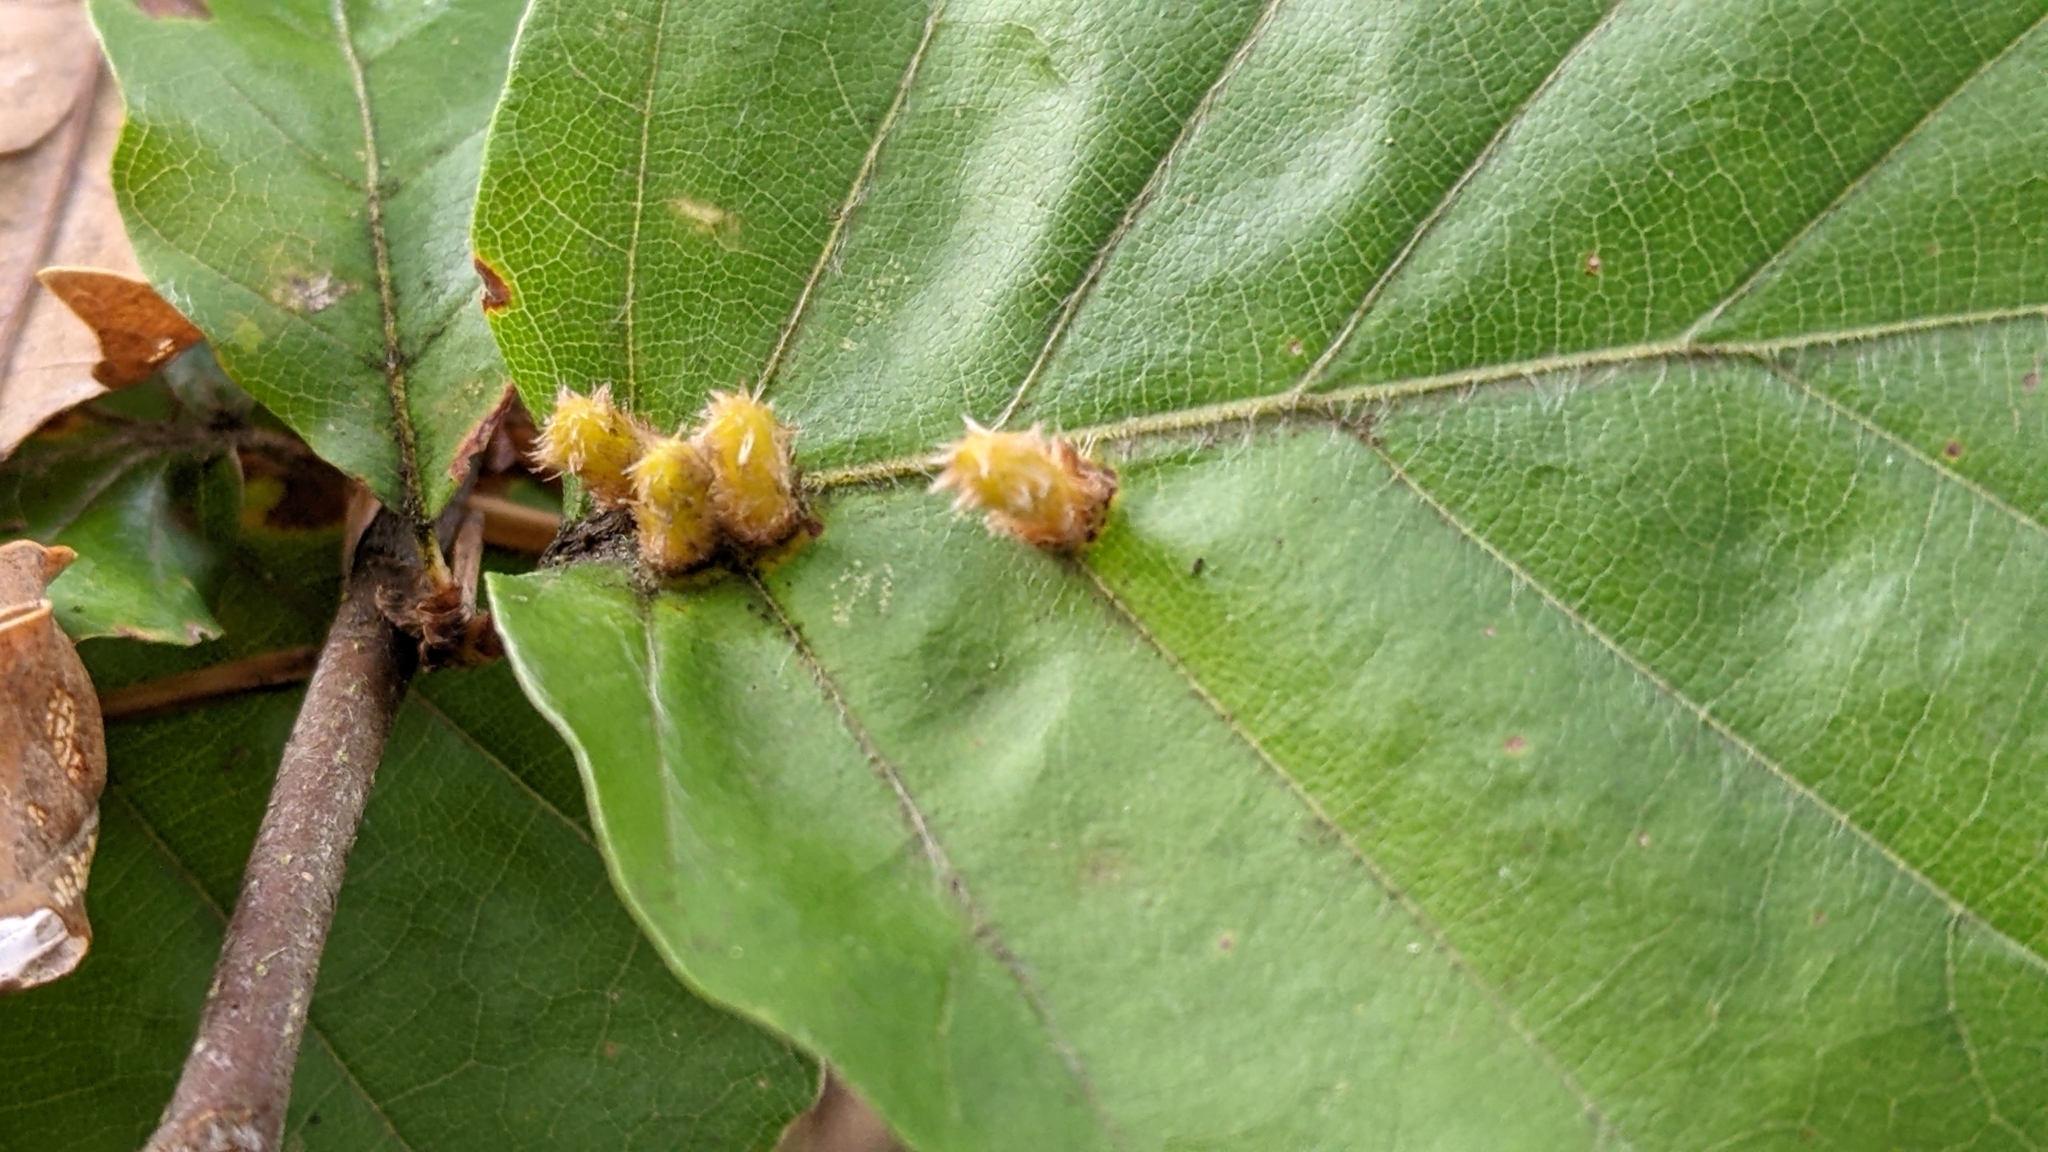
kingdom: Animalia
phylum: Arthropoda
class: Insecta
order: Diptera
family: Cecidomyiidae
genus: Hartigiola
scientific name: Hartigiola annulipes
